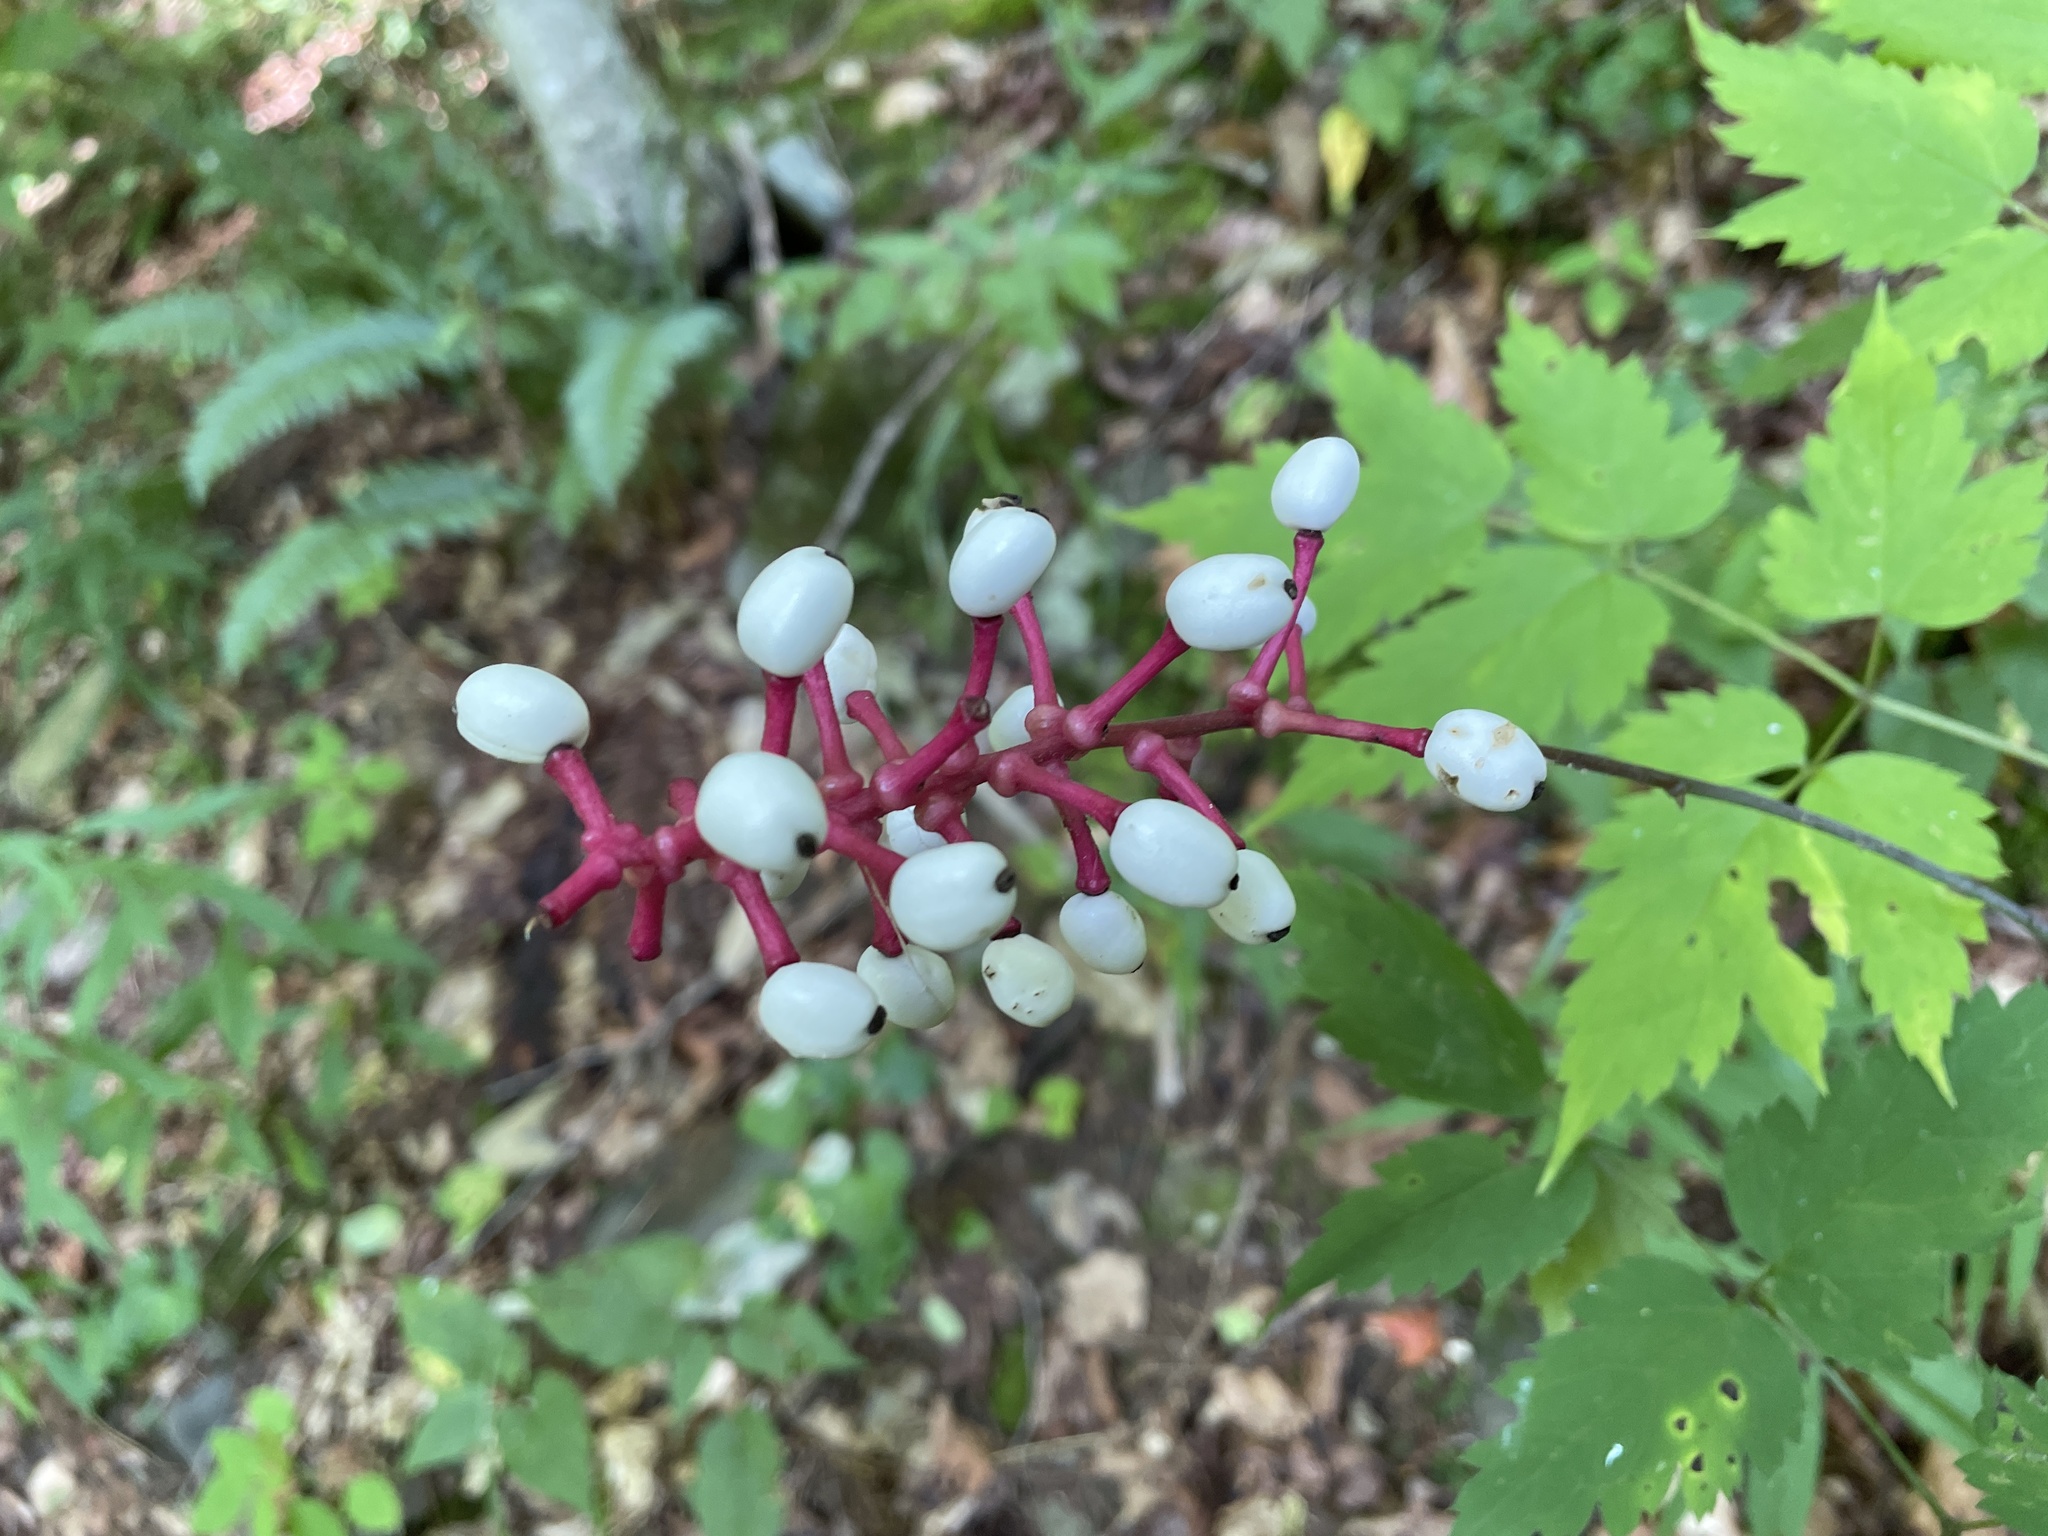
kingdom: Plantae
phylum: Tracheophyta
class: Magnoliopsida
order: Ranunculales
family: Ranunculaceae
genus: Actaea
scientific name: Actaea pachypoda
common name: Doll's-eyes
